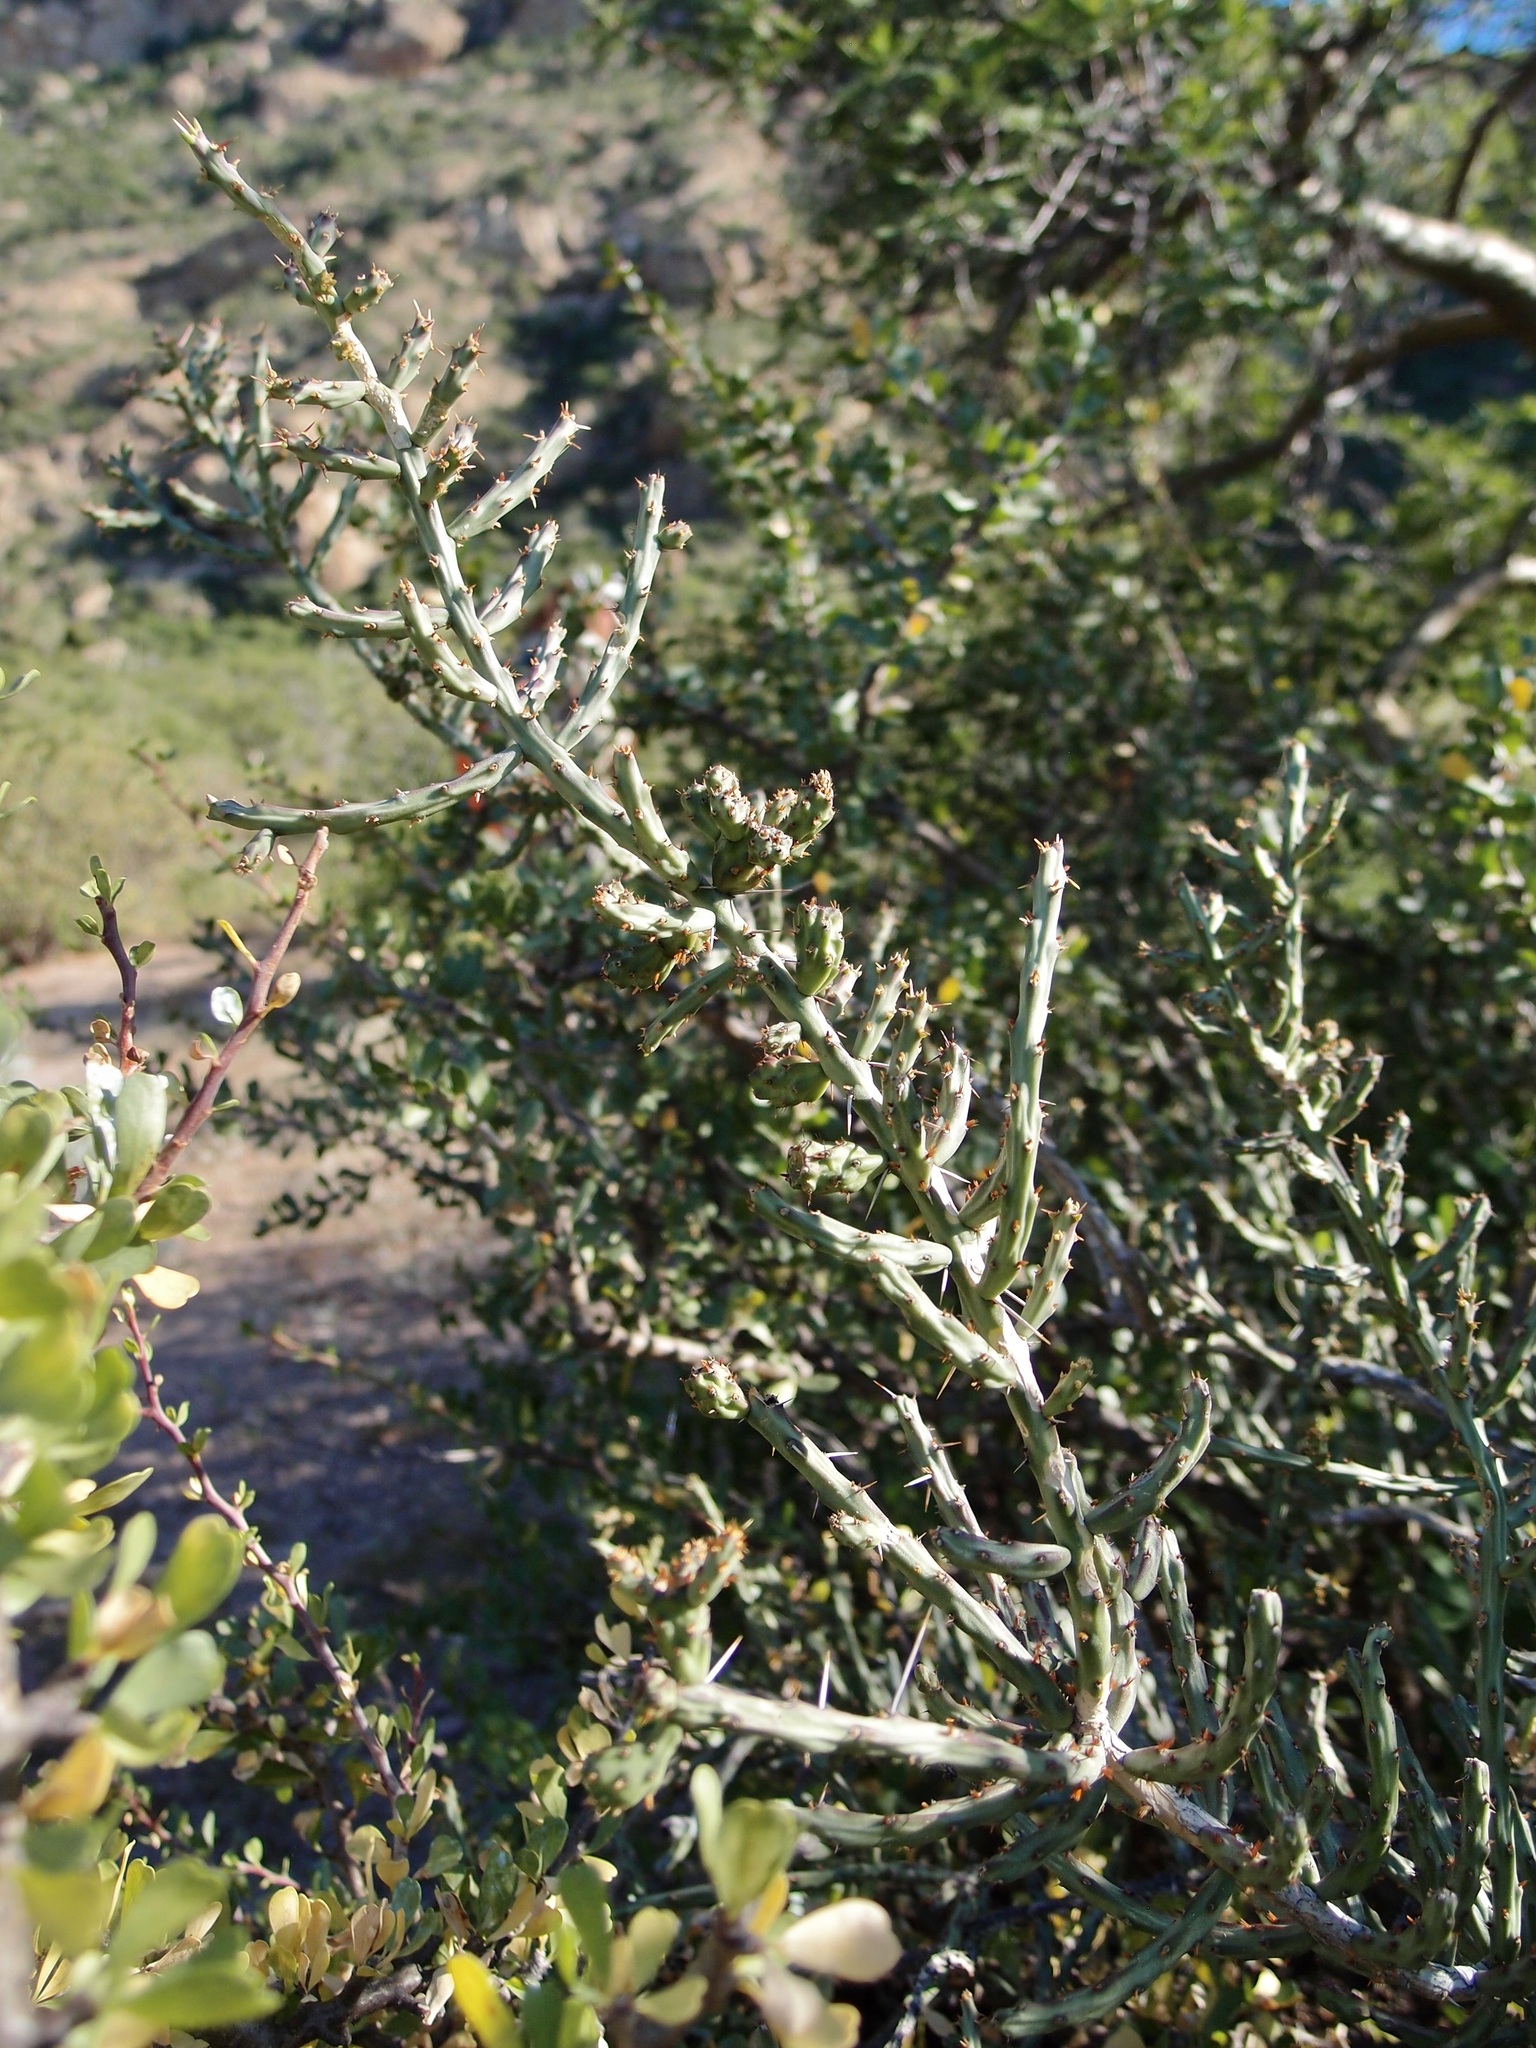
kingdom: Plantae
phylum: Tracheophyta
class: Magnoliopsida
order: Caryophyllales
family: Cactaceae
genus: Cylindropuntia
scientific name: Cylindropuntia leptocaulis
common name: Christmas cactus
